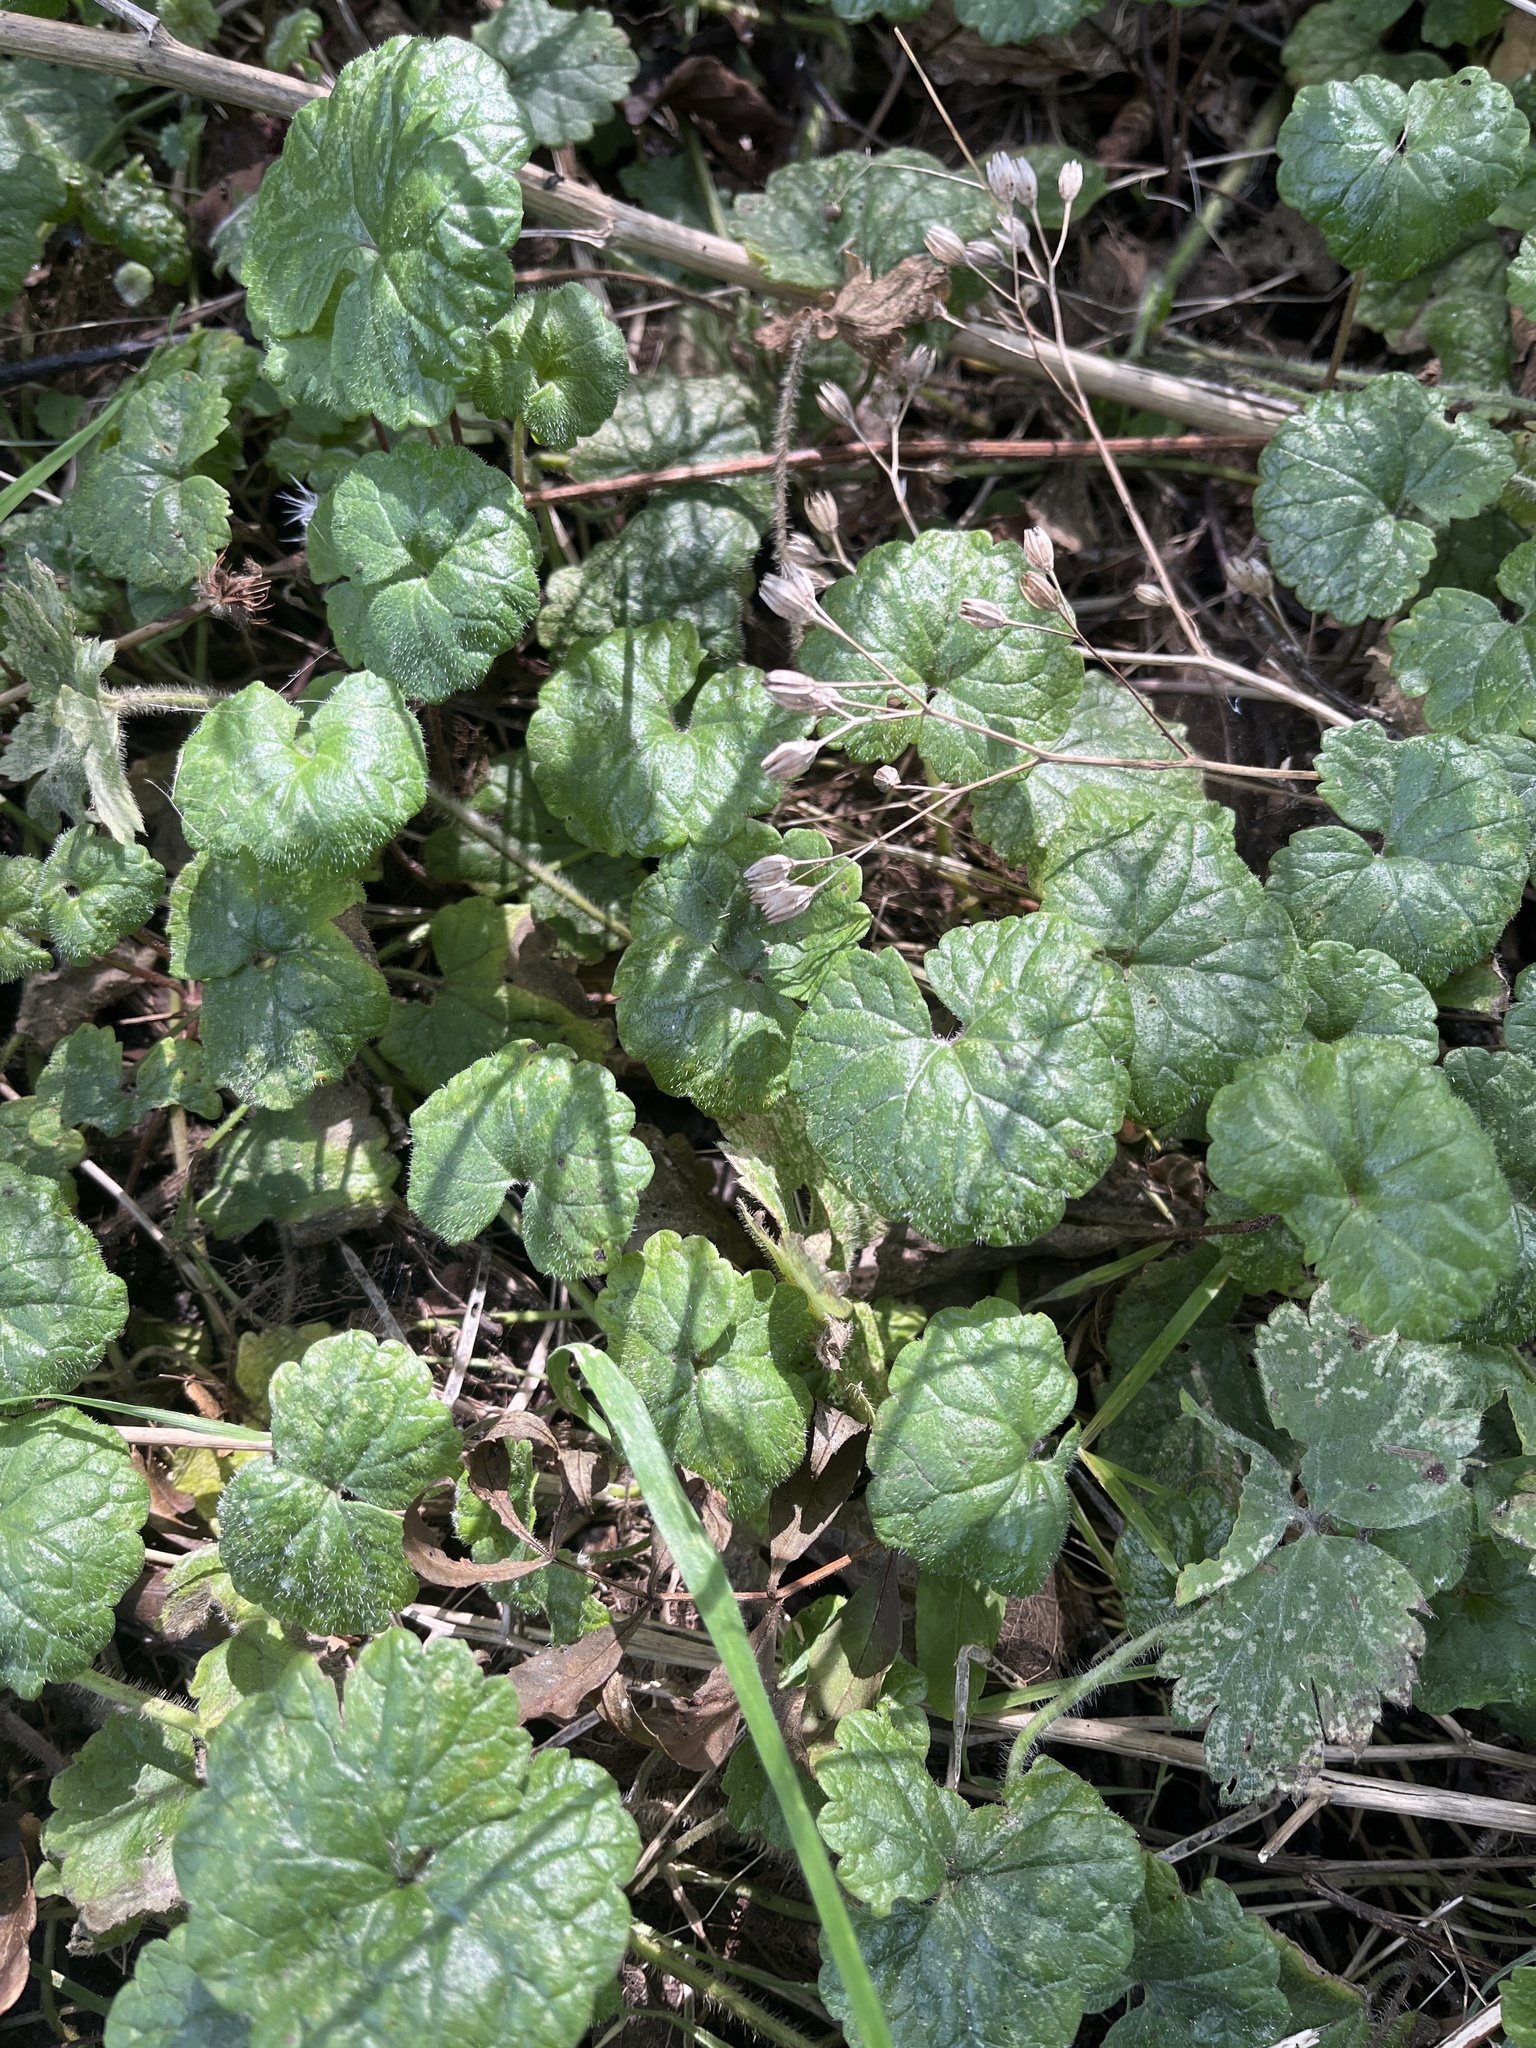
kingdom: Plantae
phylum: Tracheophyta
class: Magnoliopsida
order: Lamiales
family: Lamiaceae
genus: Glechoma
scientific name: Glechoma hederacea
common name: Ground ivy
